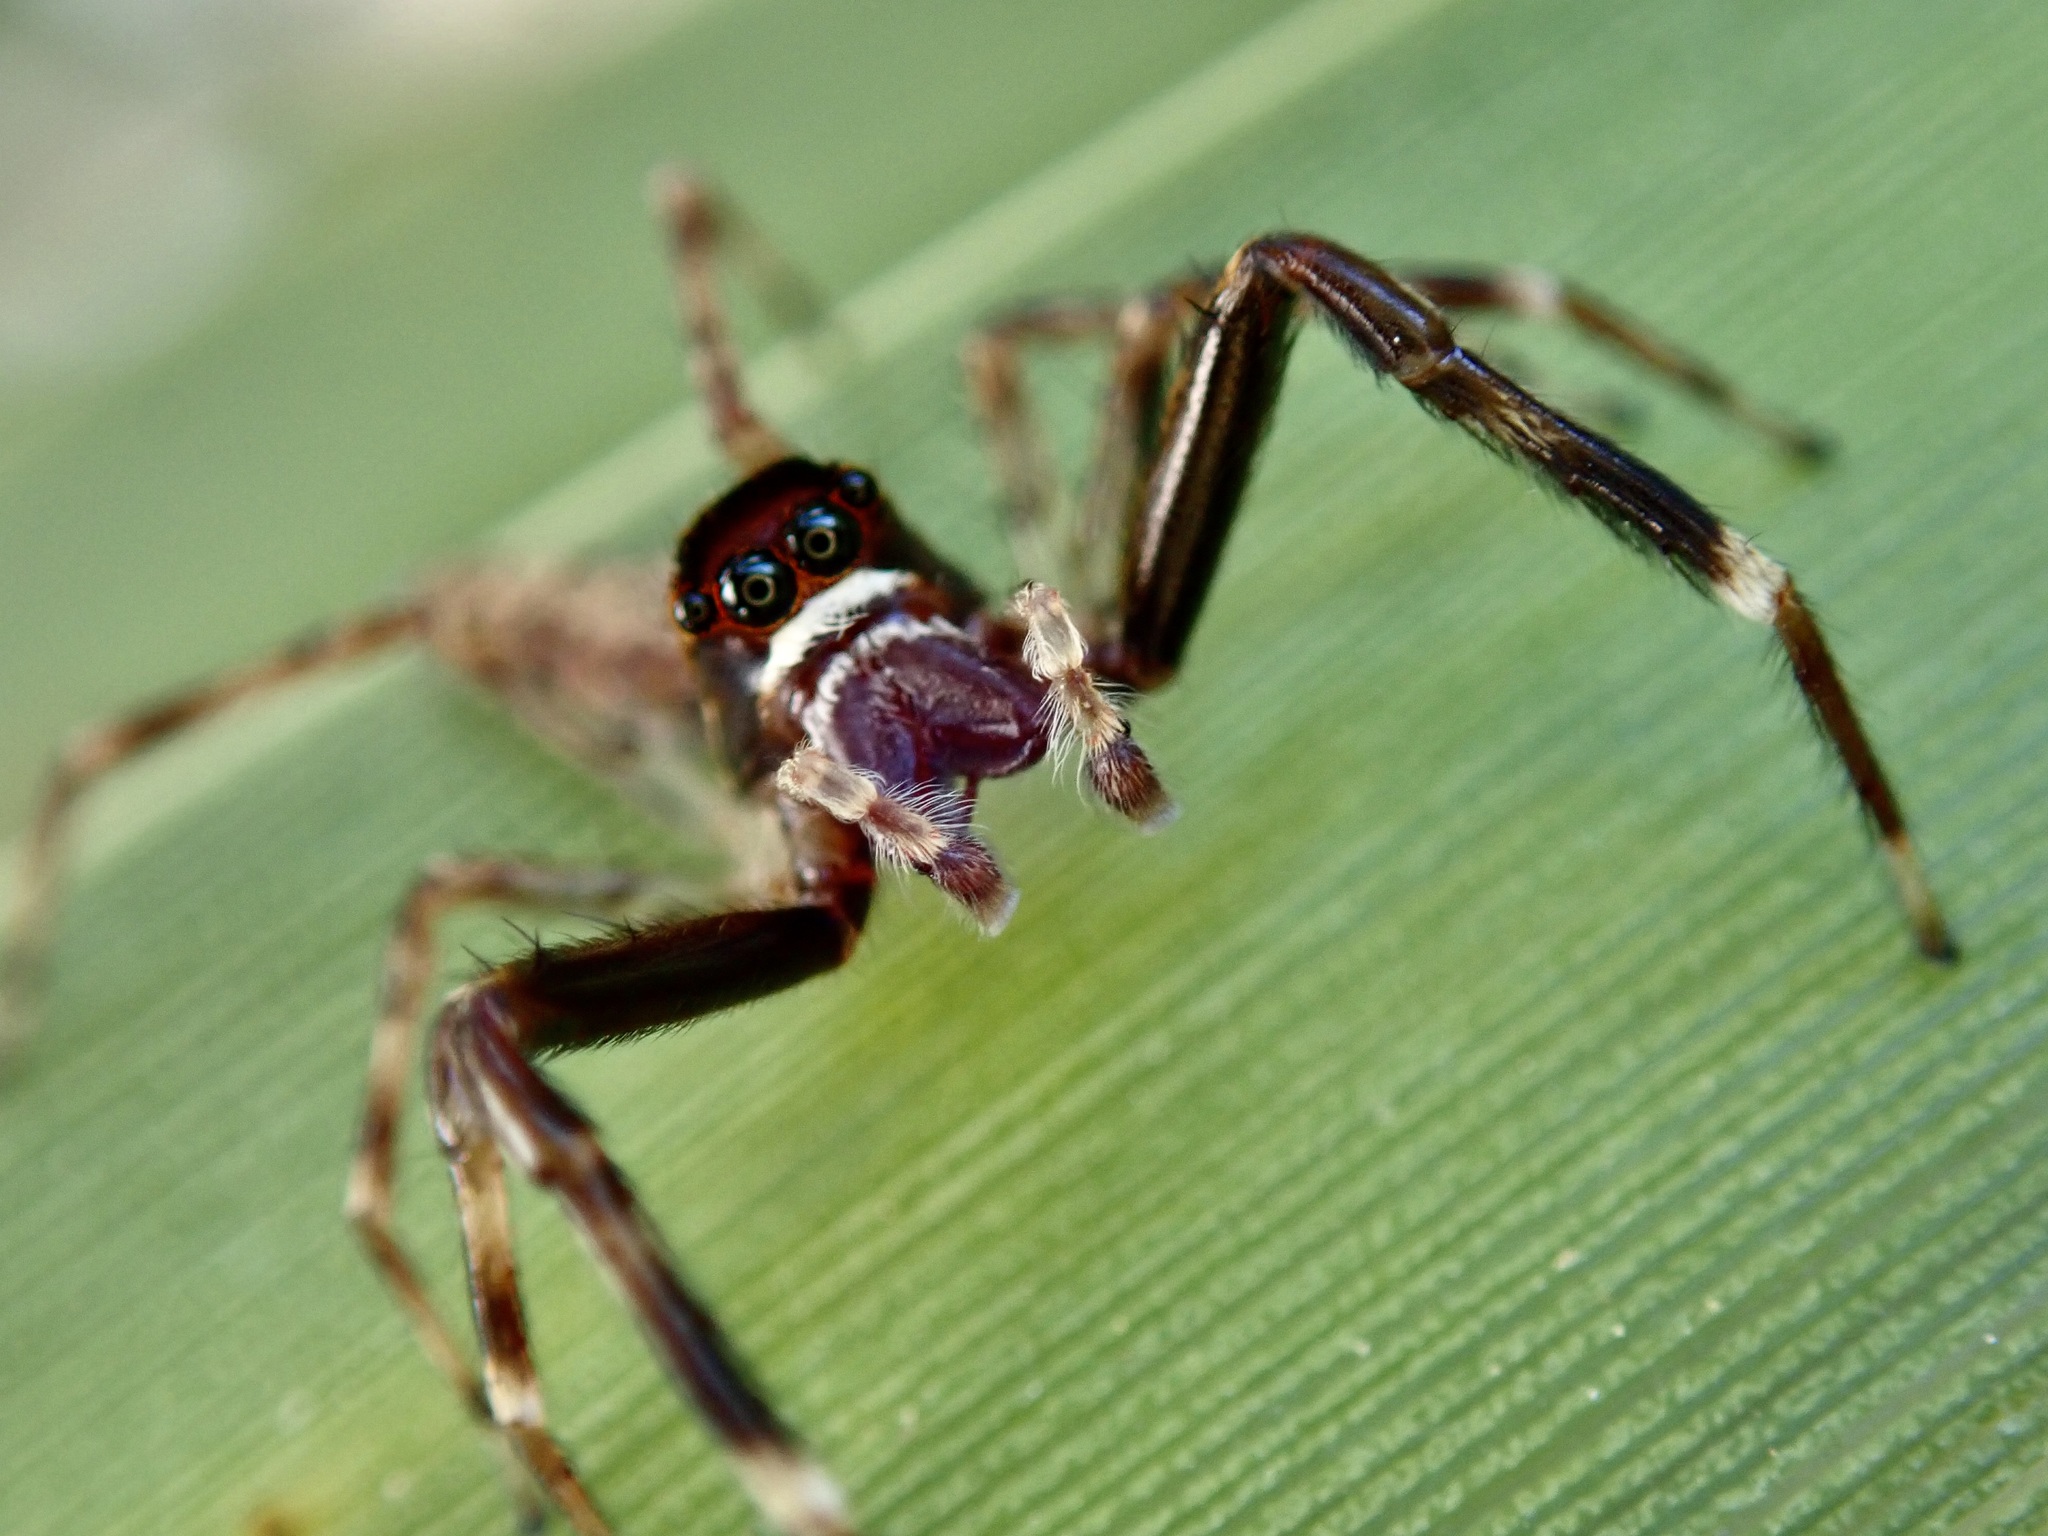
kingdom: Animalia
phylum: Arthropoda
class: Arachnida
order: Araneae
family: Salticidae
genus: Helpis
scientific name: Helpis minitabunda
